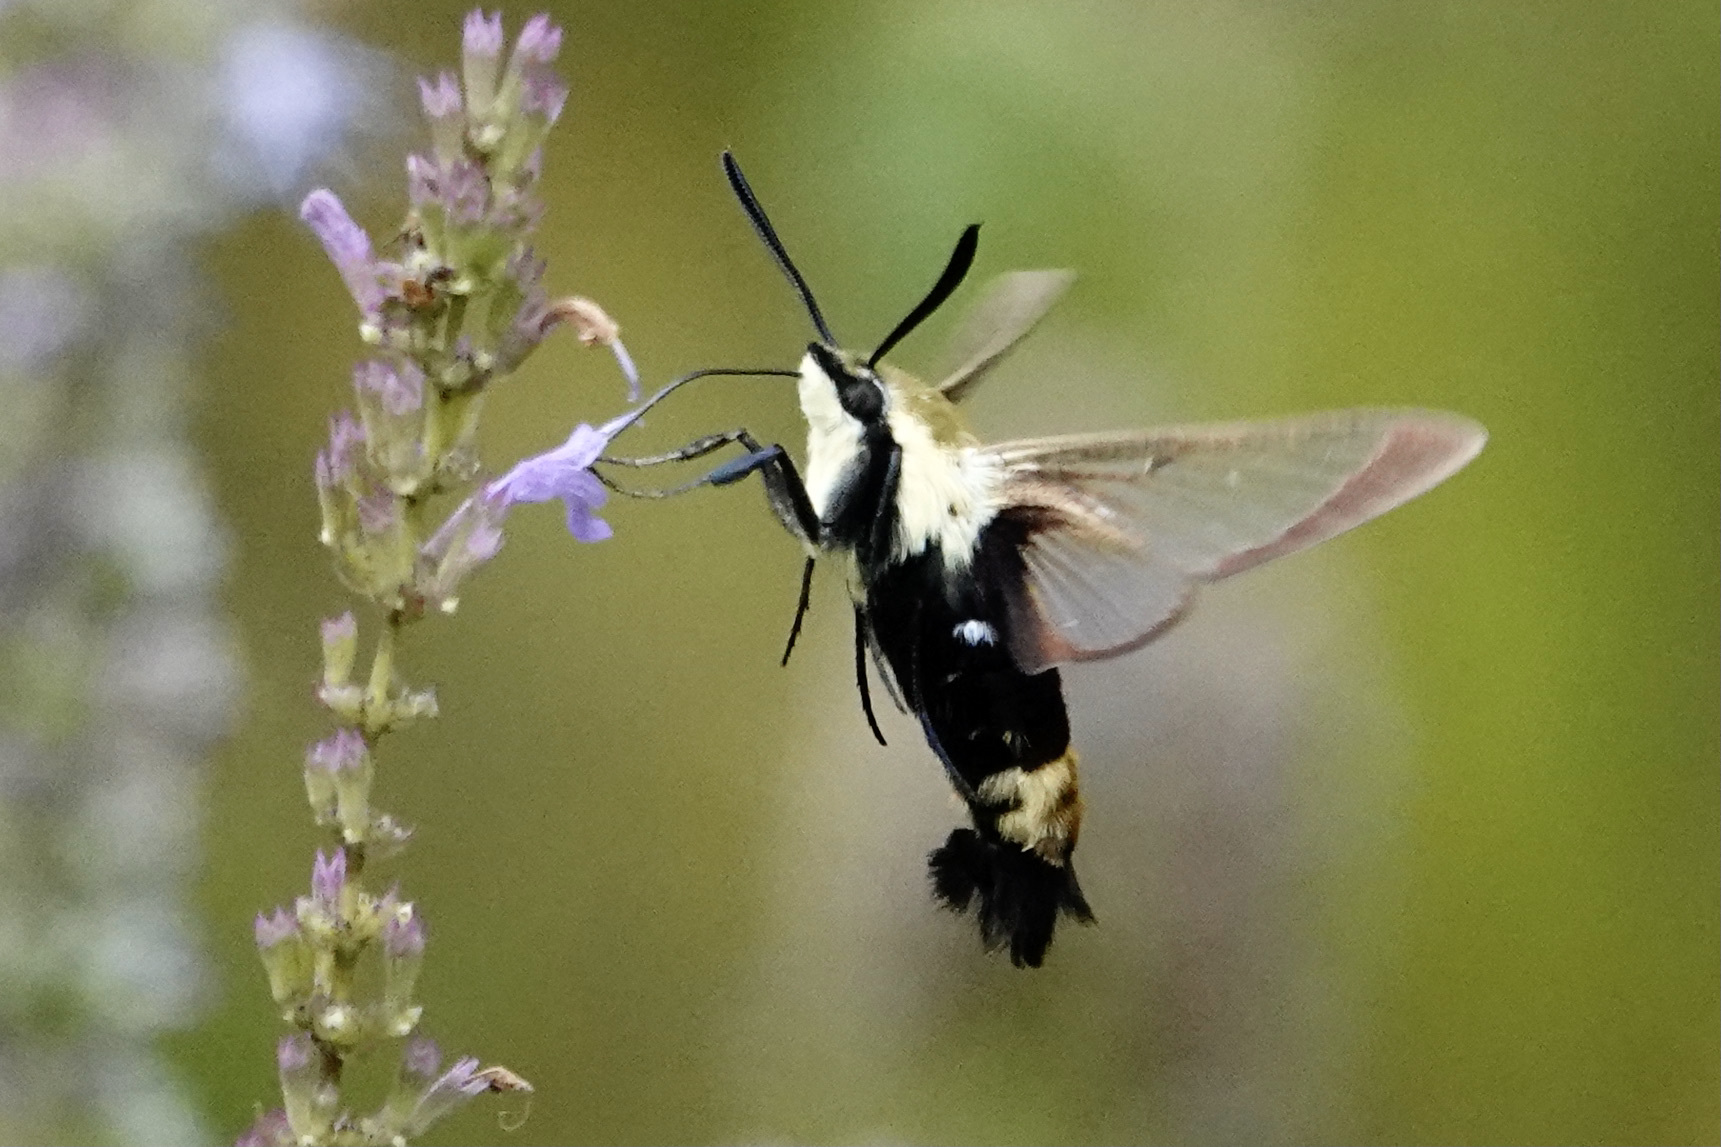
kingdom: Animalia
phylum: Arthropoda
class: Insecta
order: Lepidoptera
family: Sphingidae
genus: Hemaris
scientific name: Hemaris diffinis
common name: Bumblebee moth
